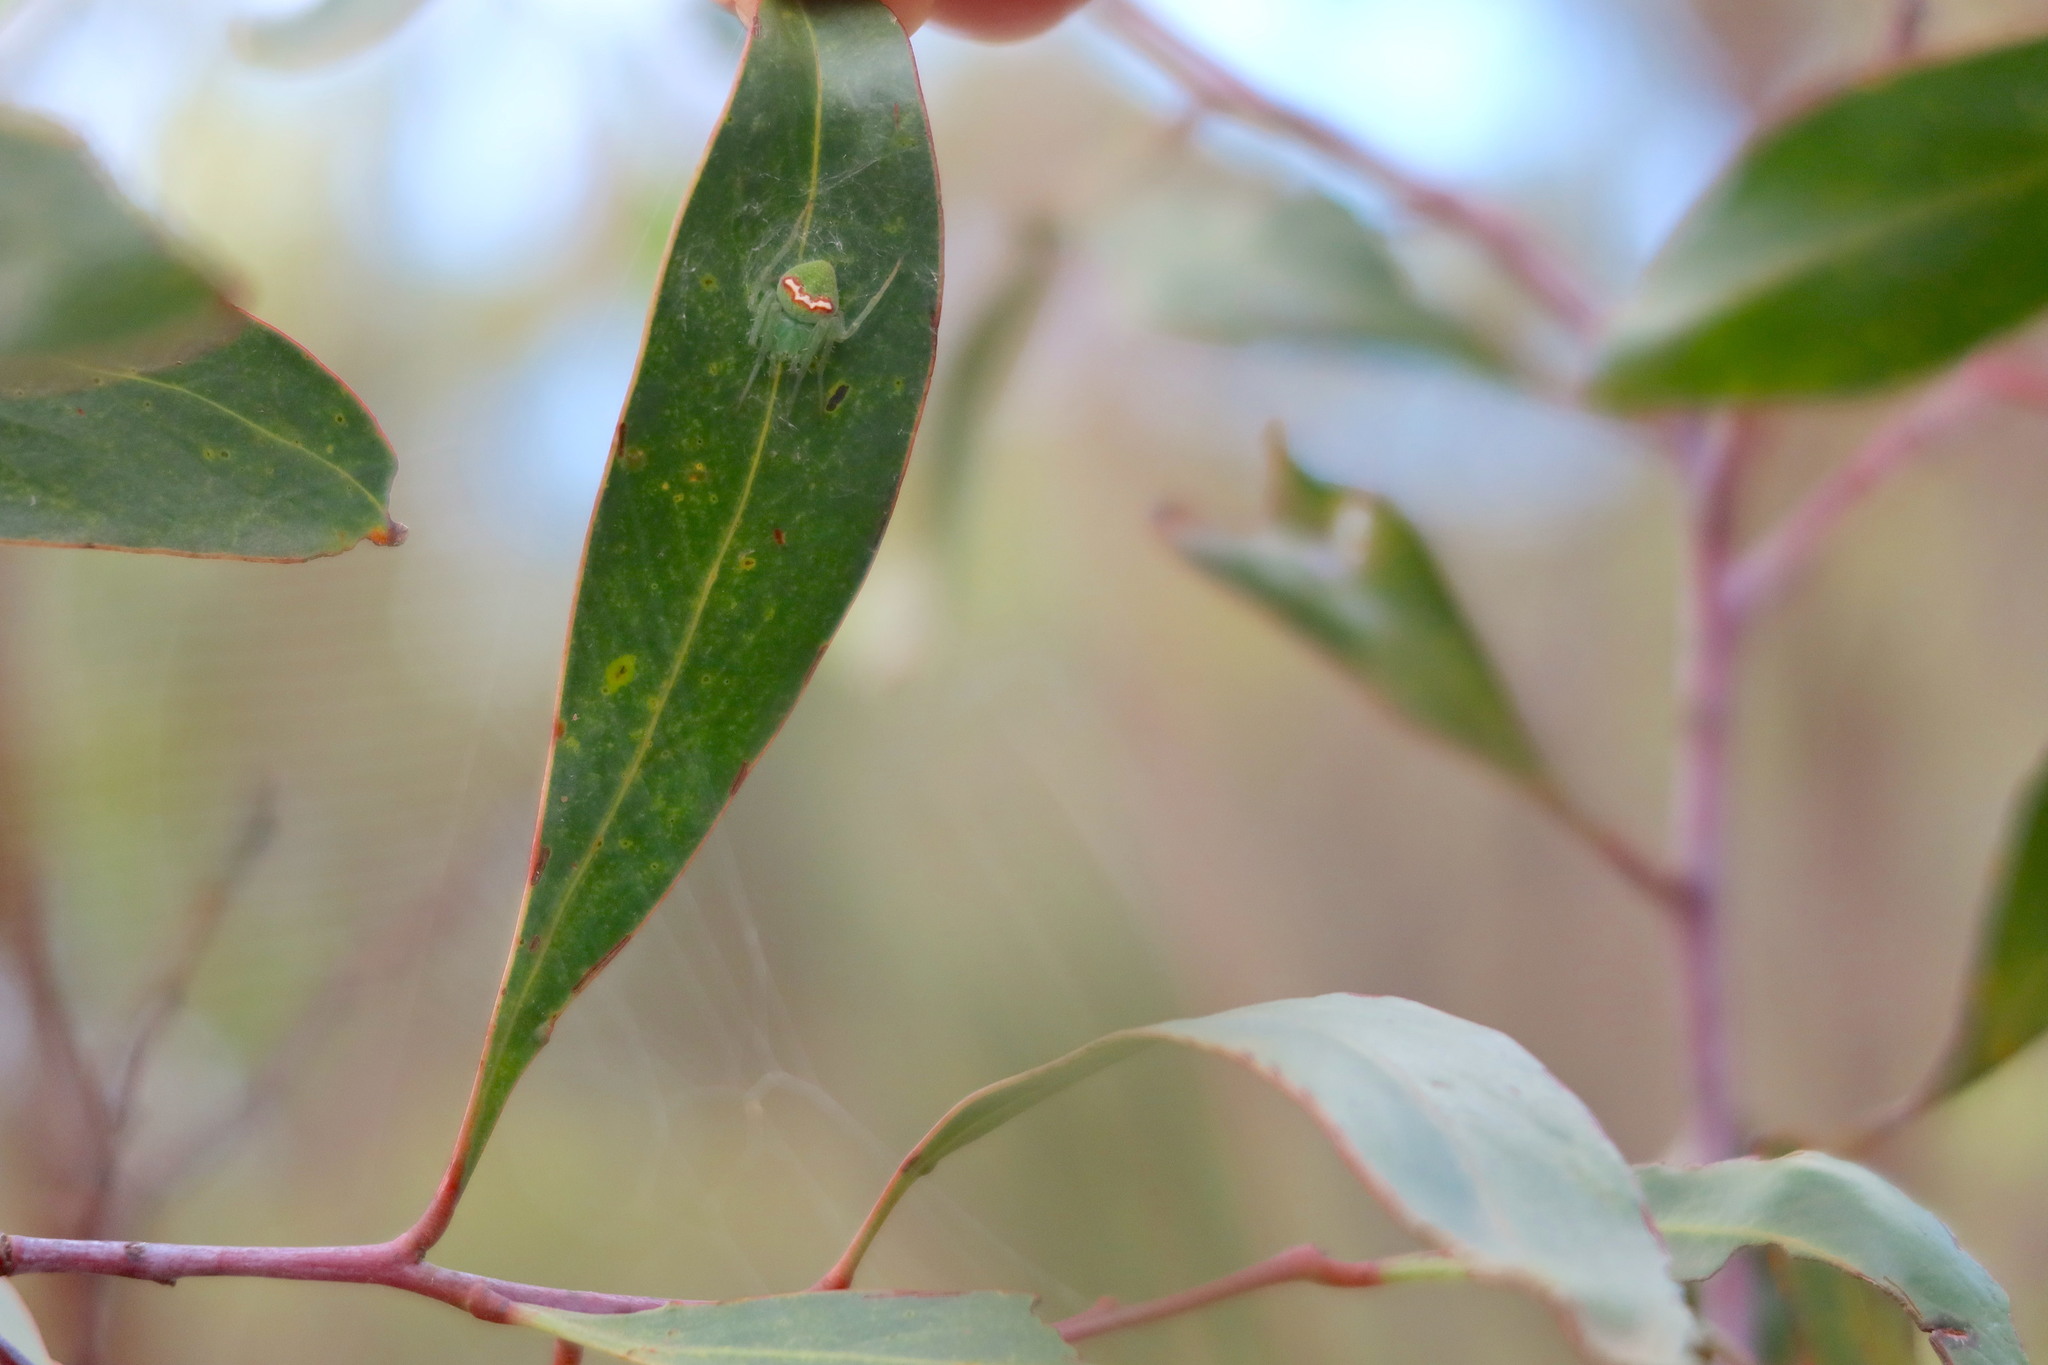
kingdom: Animalia
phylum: Arthropoda
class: Arachnida
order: Araneae
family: Araneidae
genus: Araneus
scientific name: Araneus circulissparsus
